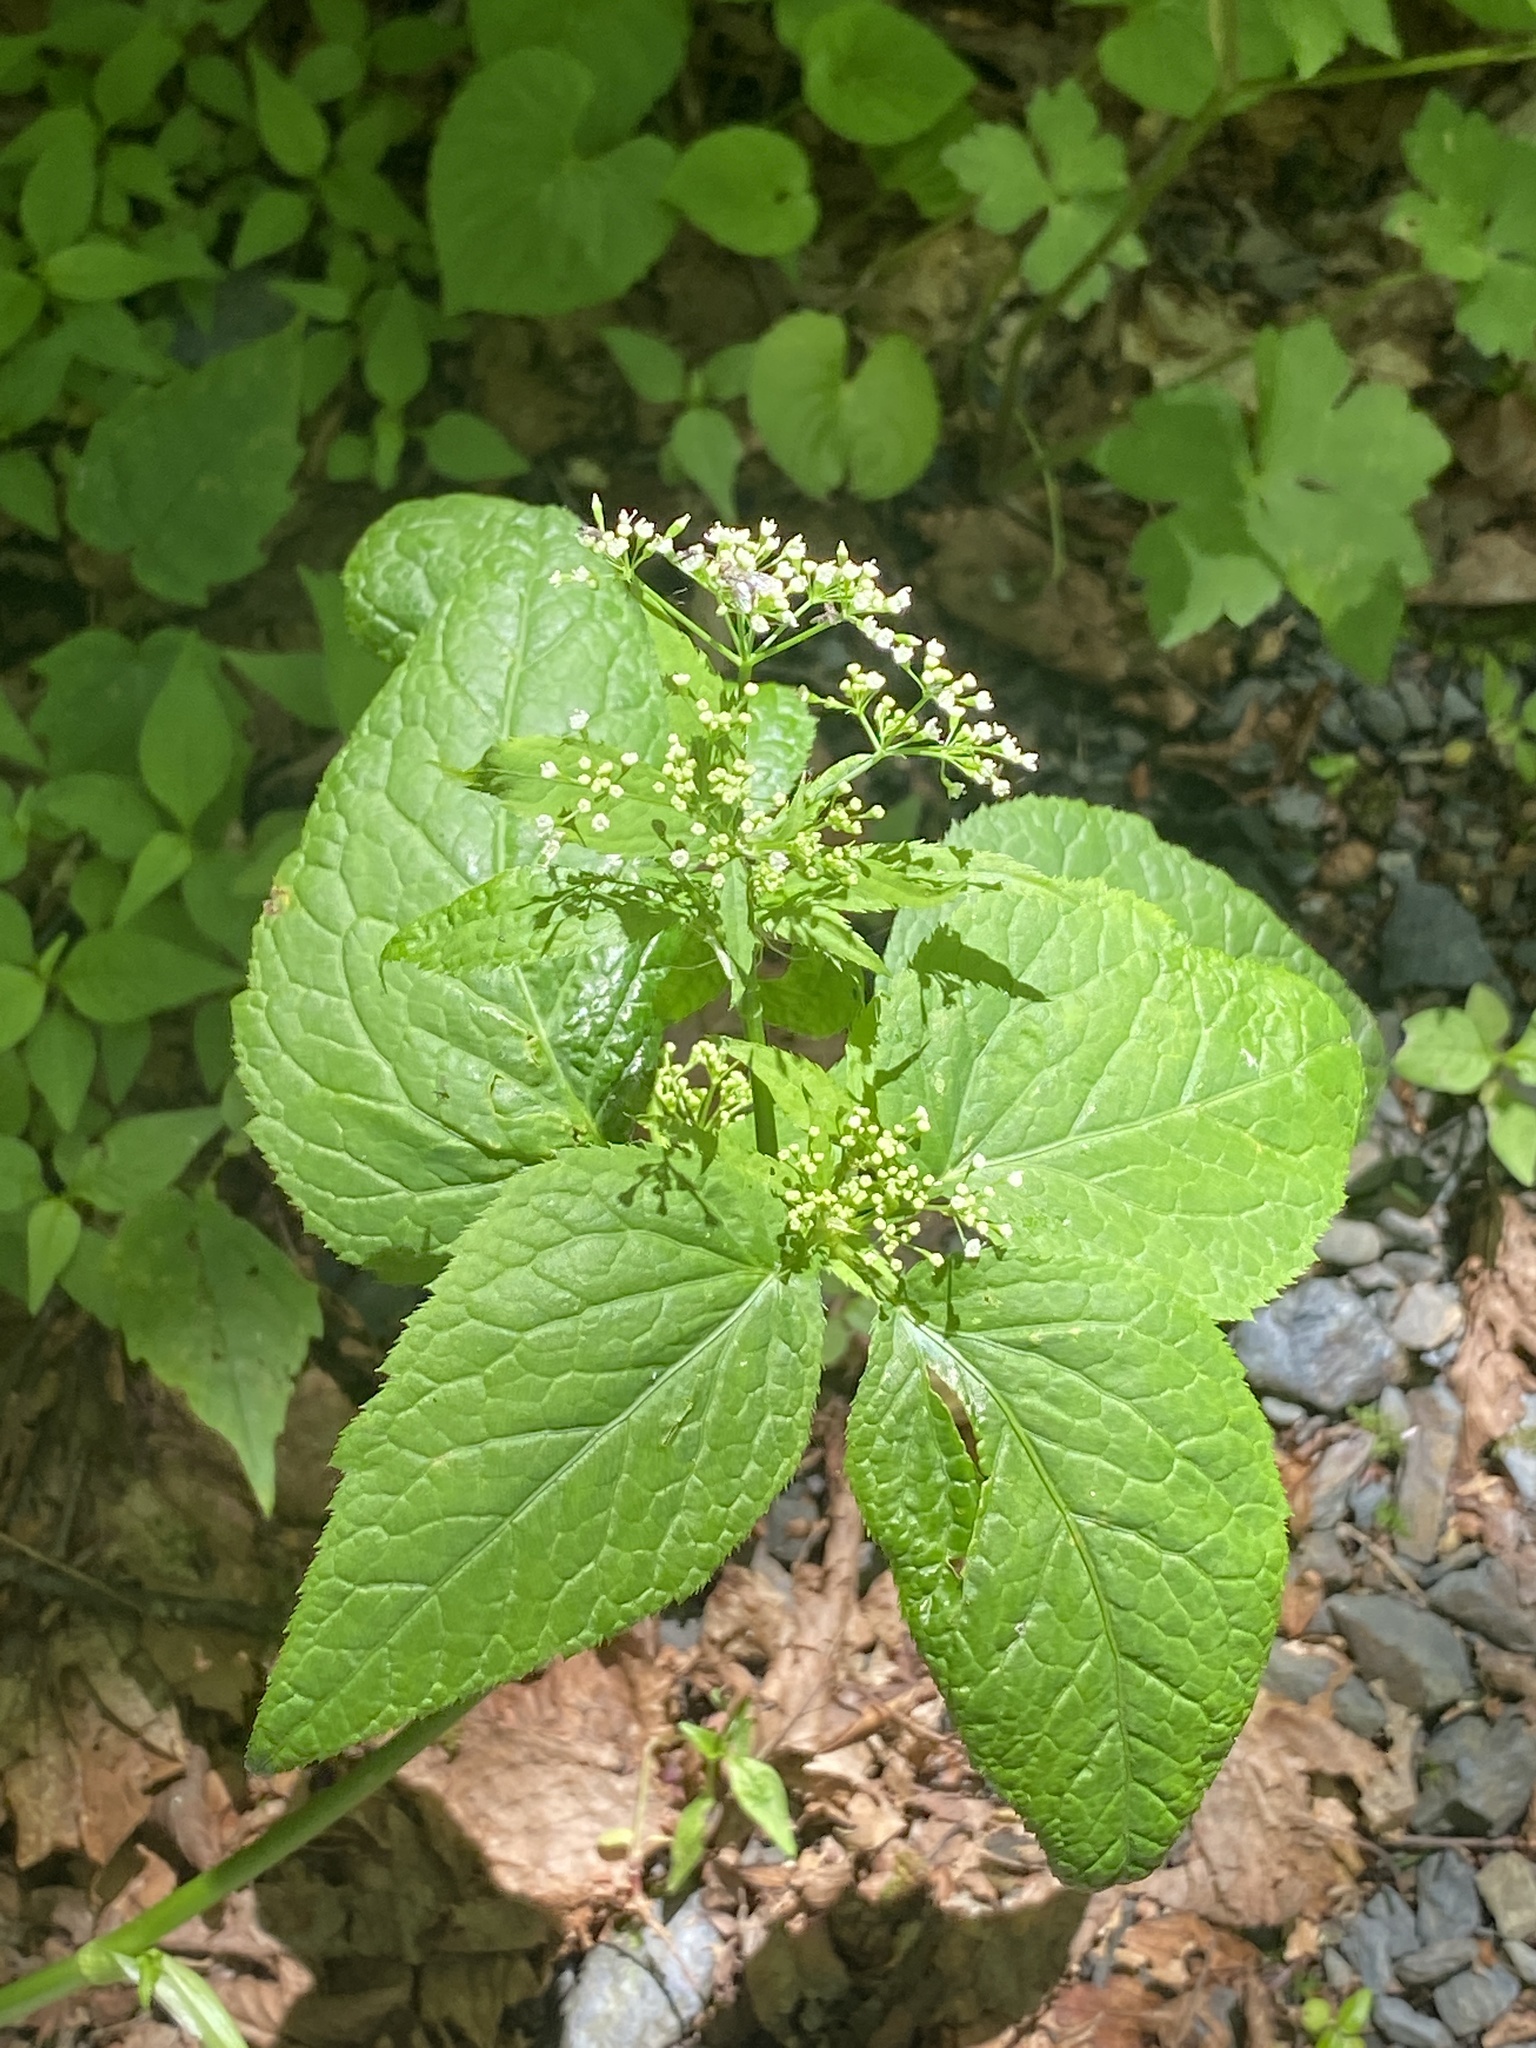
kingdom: Plantae
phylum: Tracheophyta
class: Magnoliopsida
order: Apiales
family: Apiaceae
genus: Cryptotaenia
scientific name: Cryptotaenia canadensis
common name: Honewort
